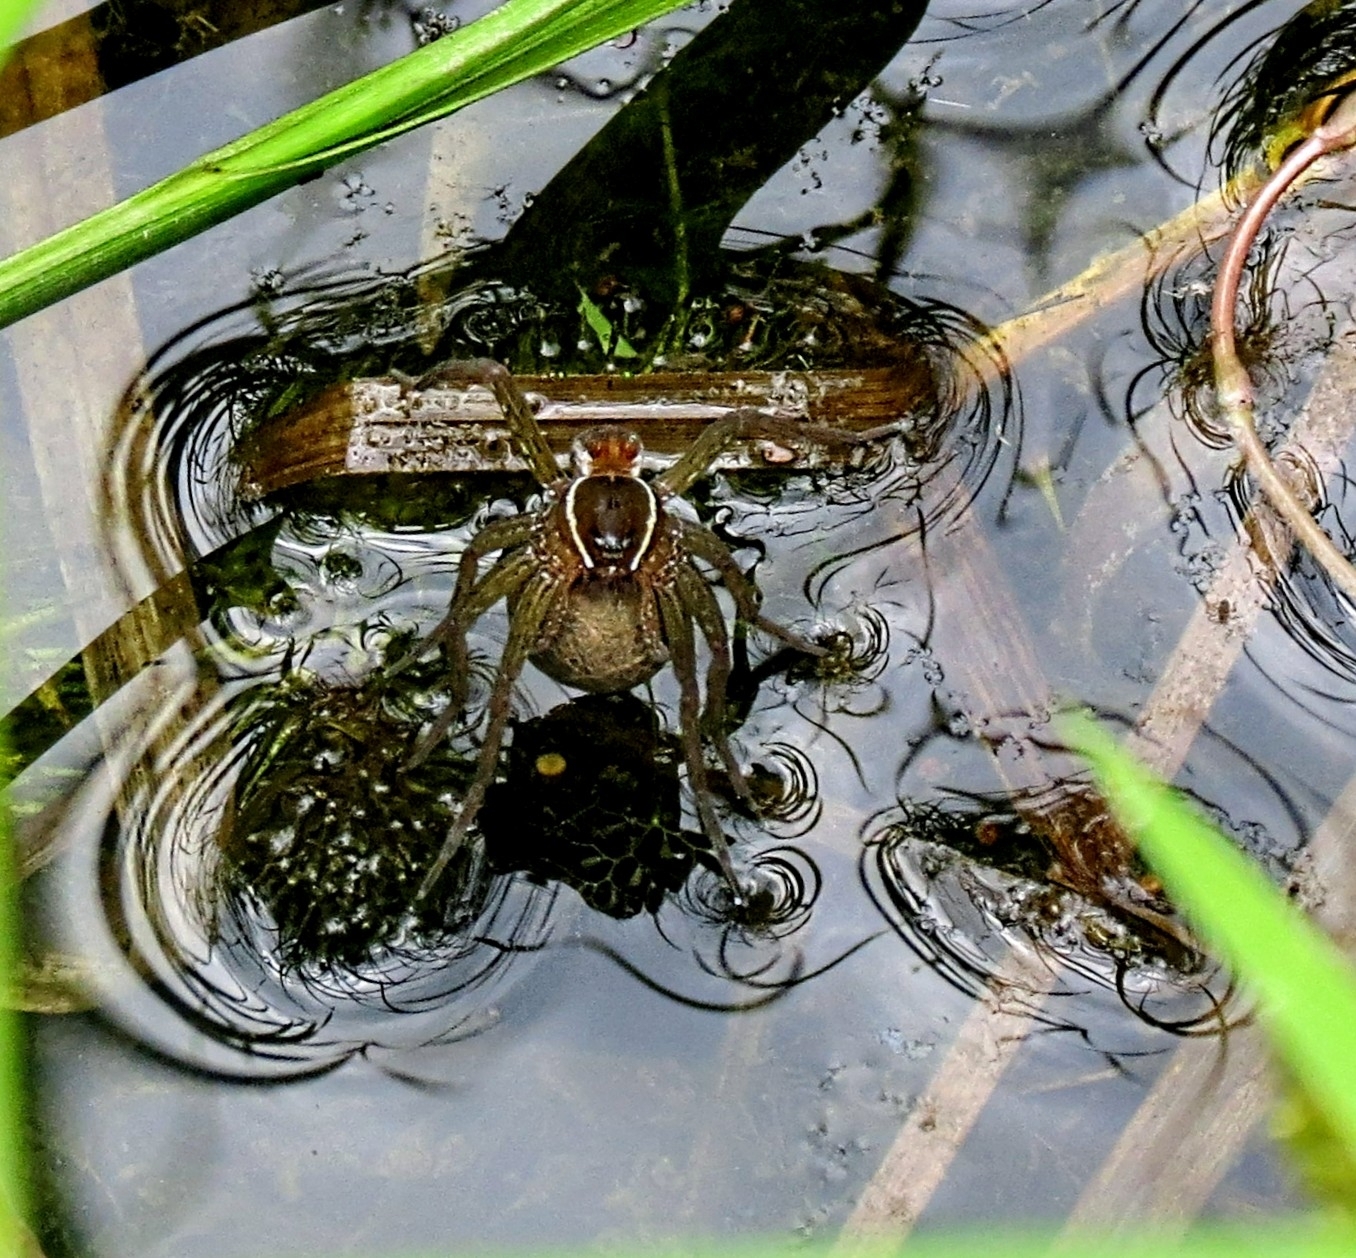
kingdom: Animalia
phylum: Arthropoda
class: Arachnida
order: Araneae
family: Pisauridae
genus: Dolomedes
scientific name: Dolomedes triton
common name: Six-spotted fishing spider
